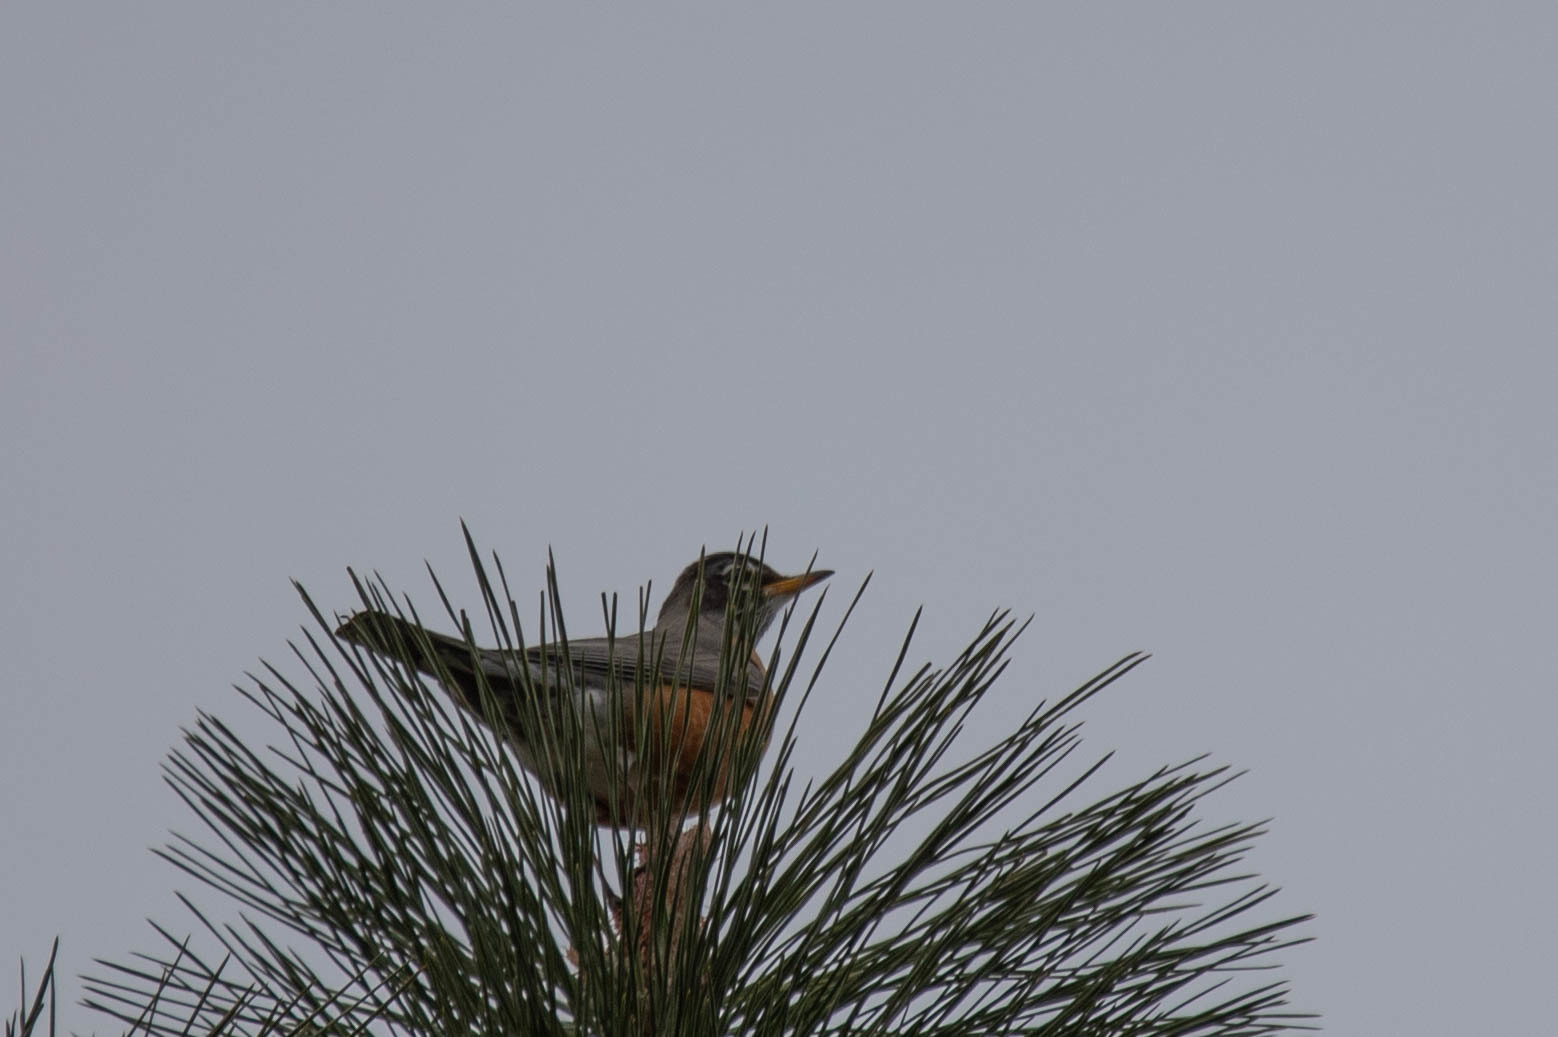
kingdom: Animalia
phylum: Chordata
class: Aves
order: Passeriformes
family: Turdidae
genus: Turdus
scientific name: Turdus migratorius
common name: American robin
